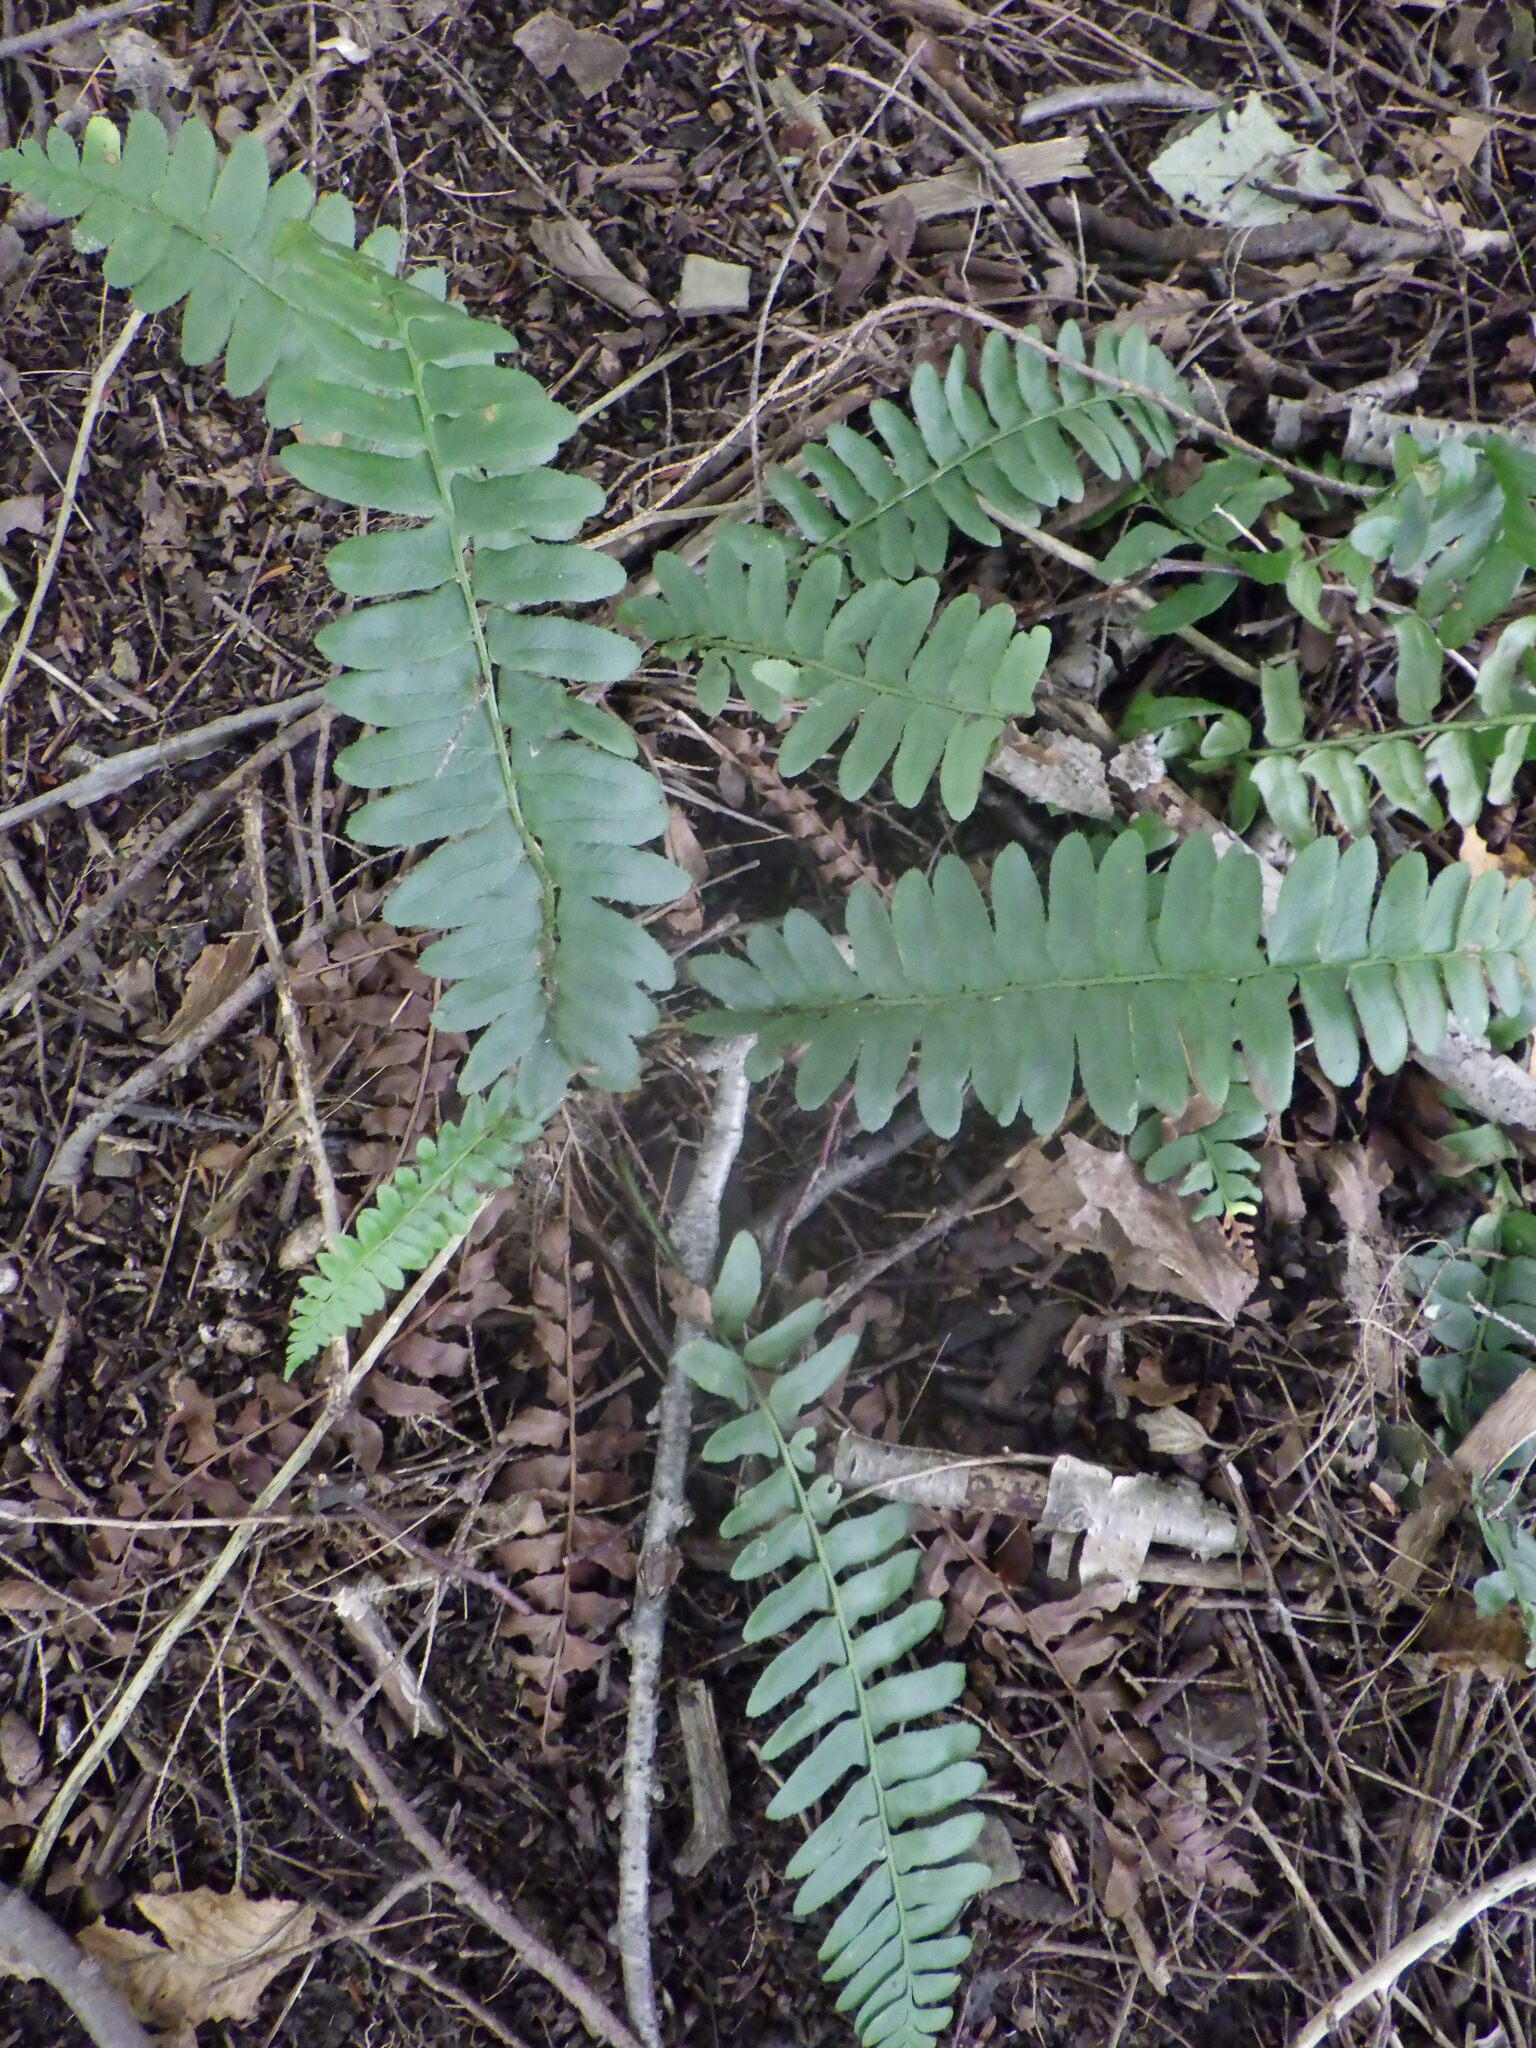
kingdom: Plantae
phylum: Tracheophyta
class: Polypodiopsida
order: Polypodiales
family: Dryopteridaceae
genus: Polystichum
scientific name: Polystichum acrostichoides
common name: Christmas fern
